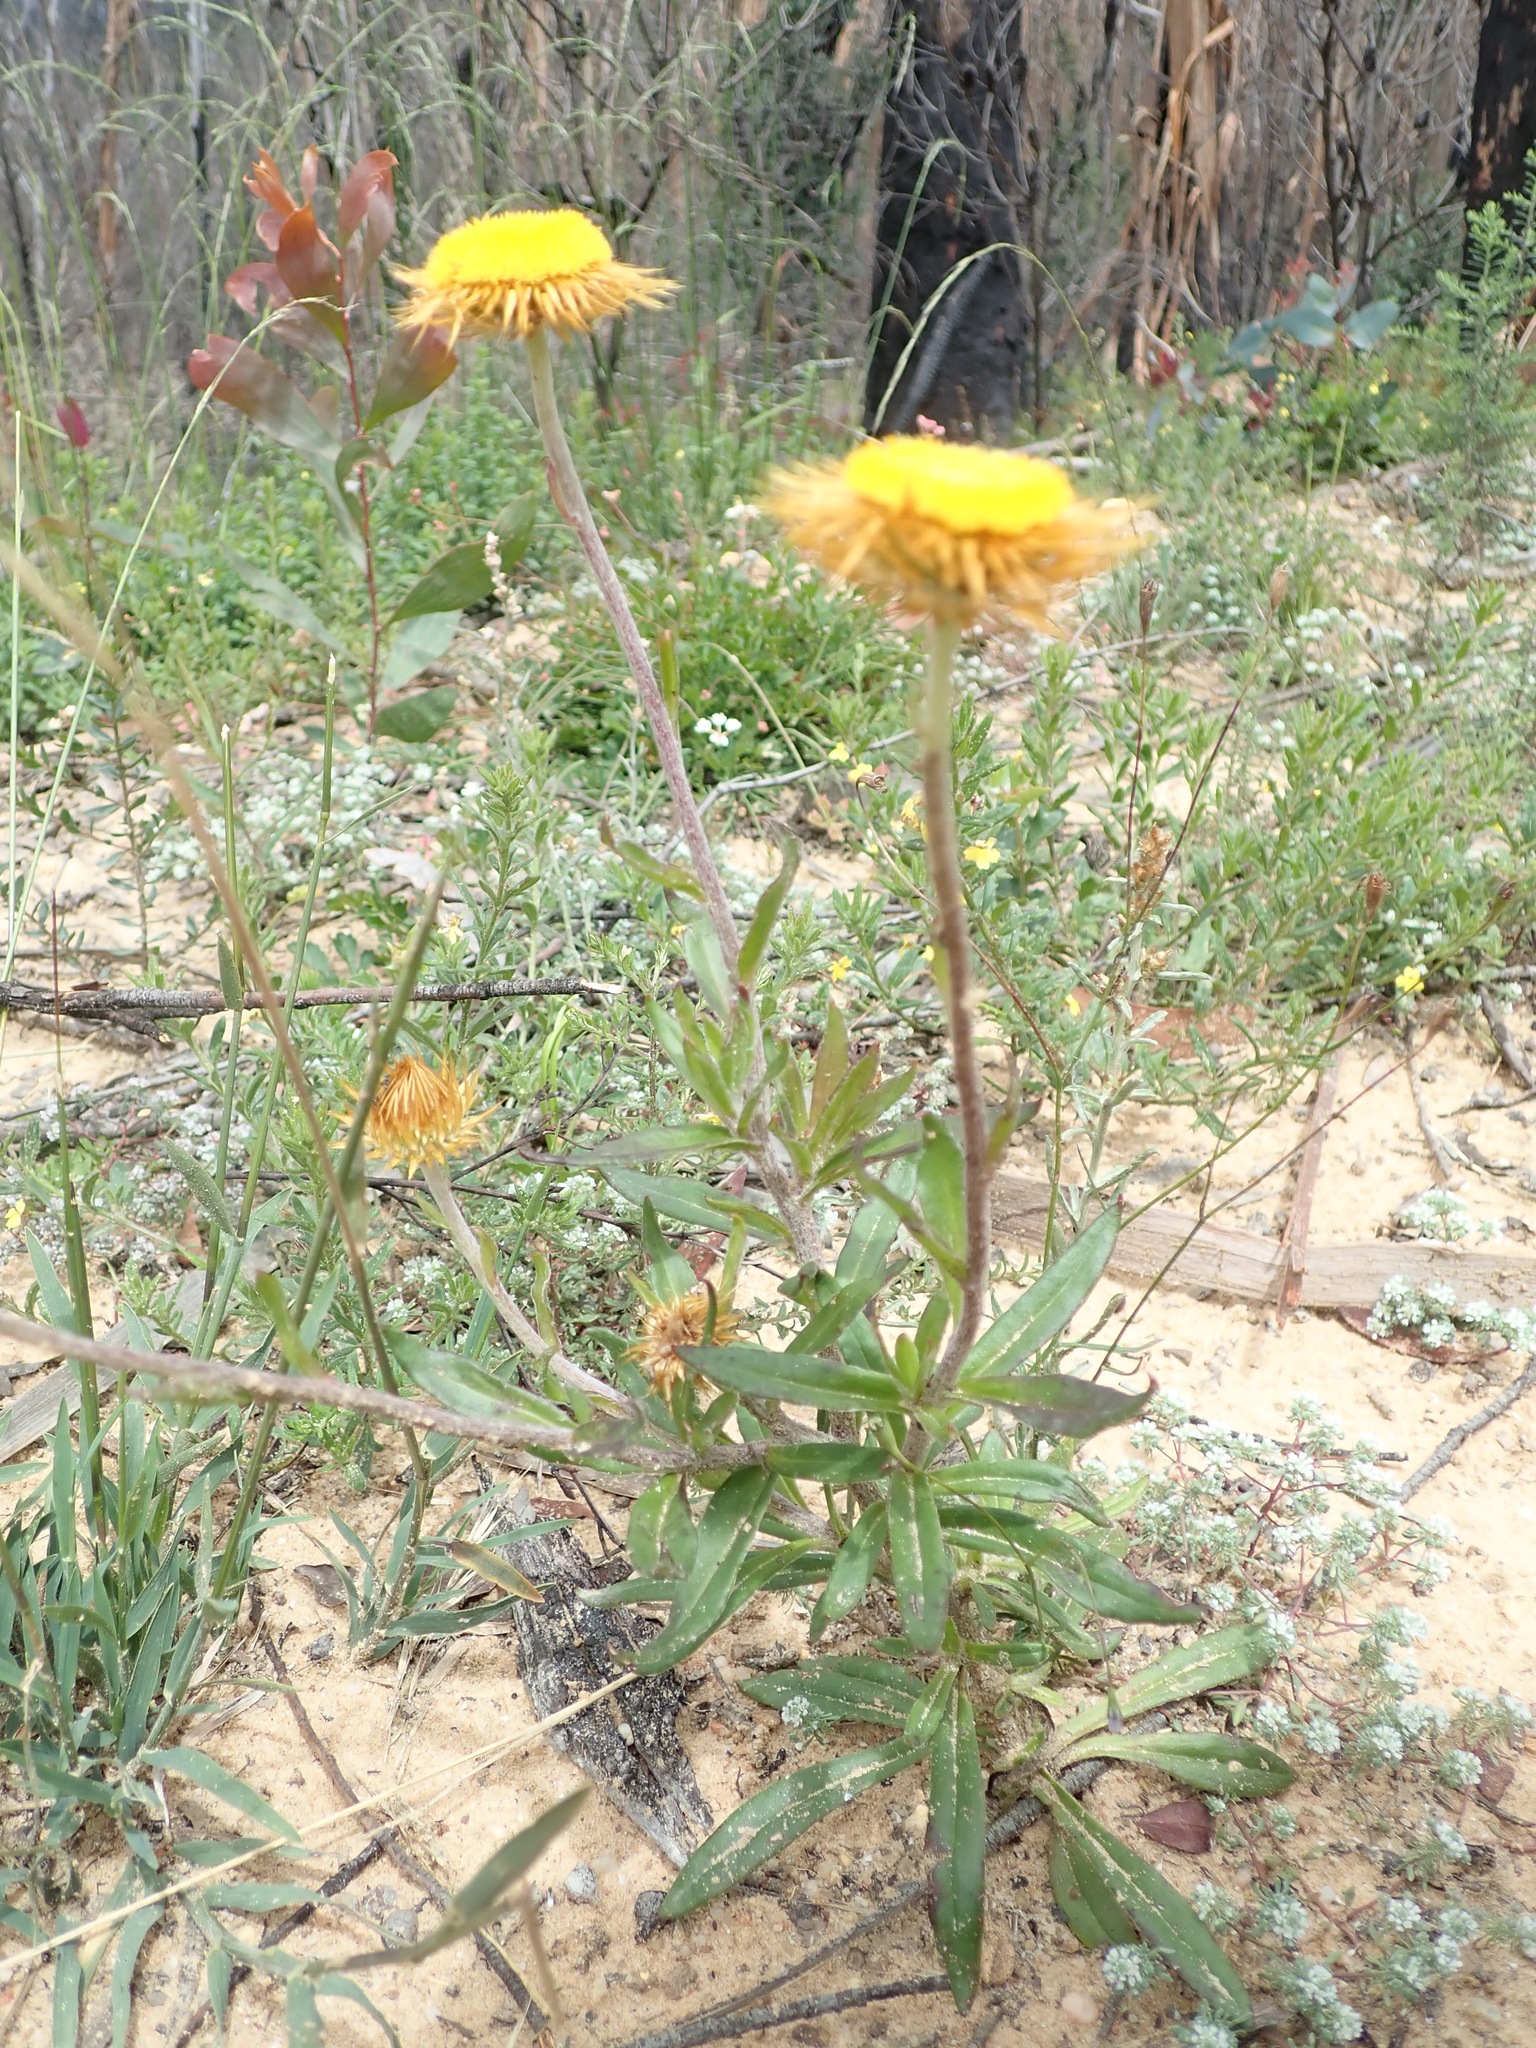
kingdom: Plantae
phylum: Tracheophyta
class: Magnoliopsida
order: Asterales
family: Asteraceae
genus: Coronidium
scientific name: Coronidium oxylepis
